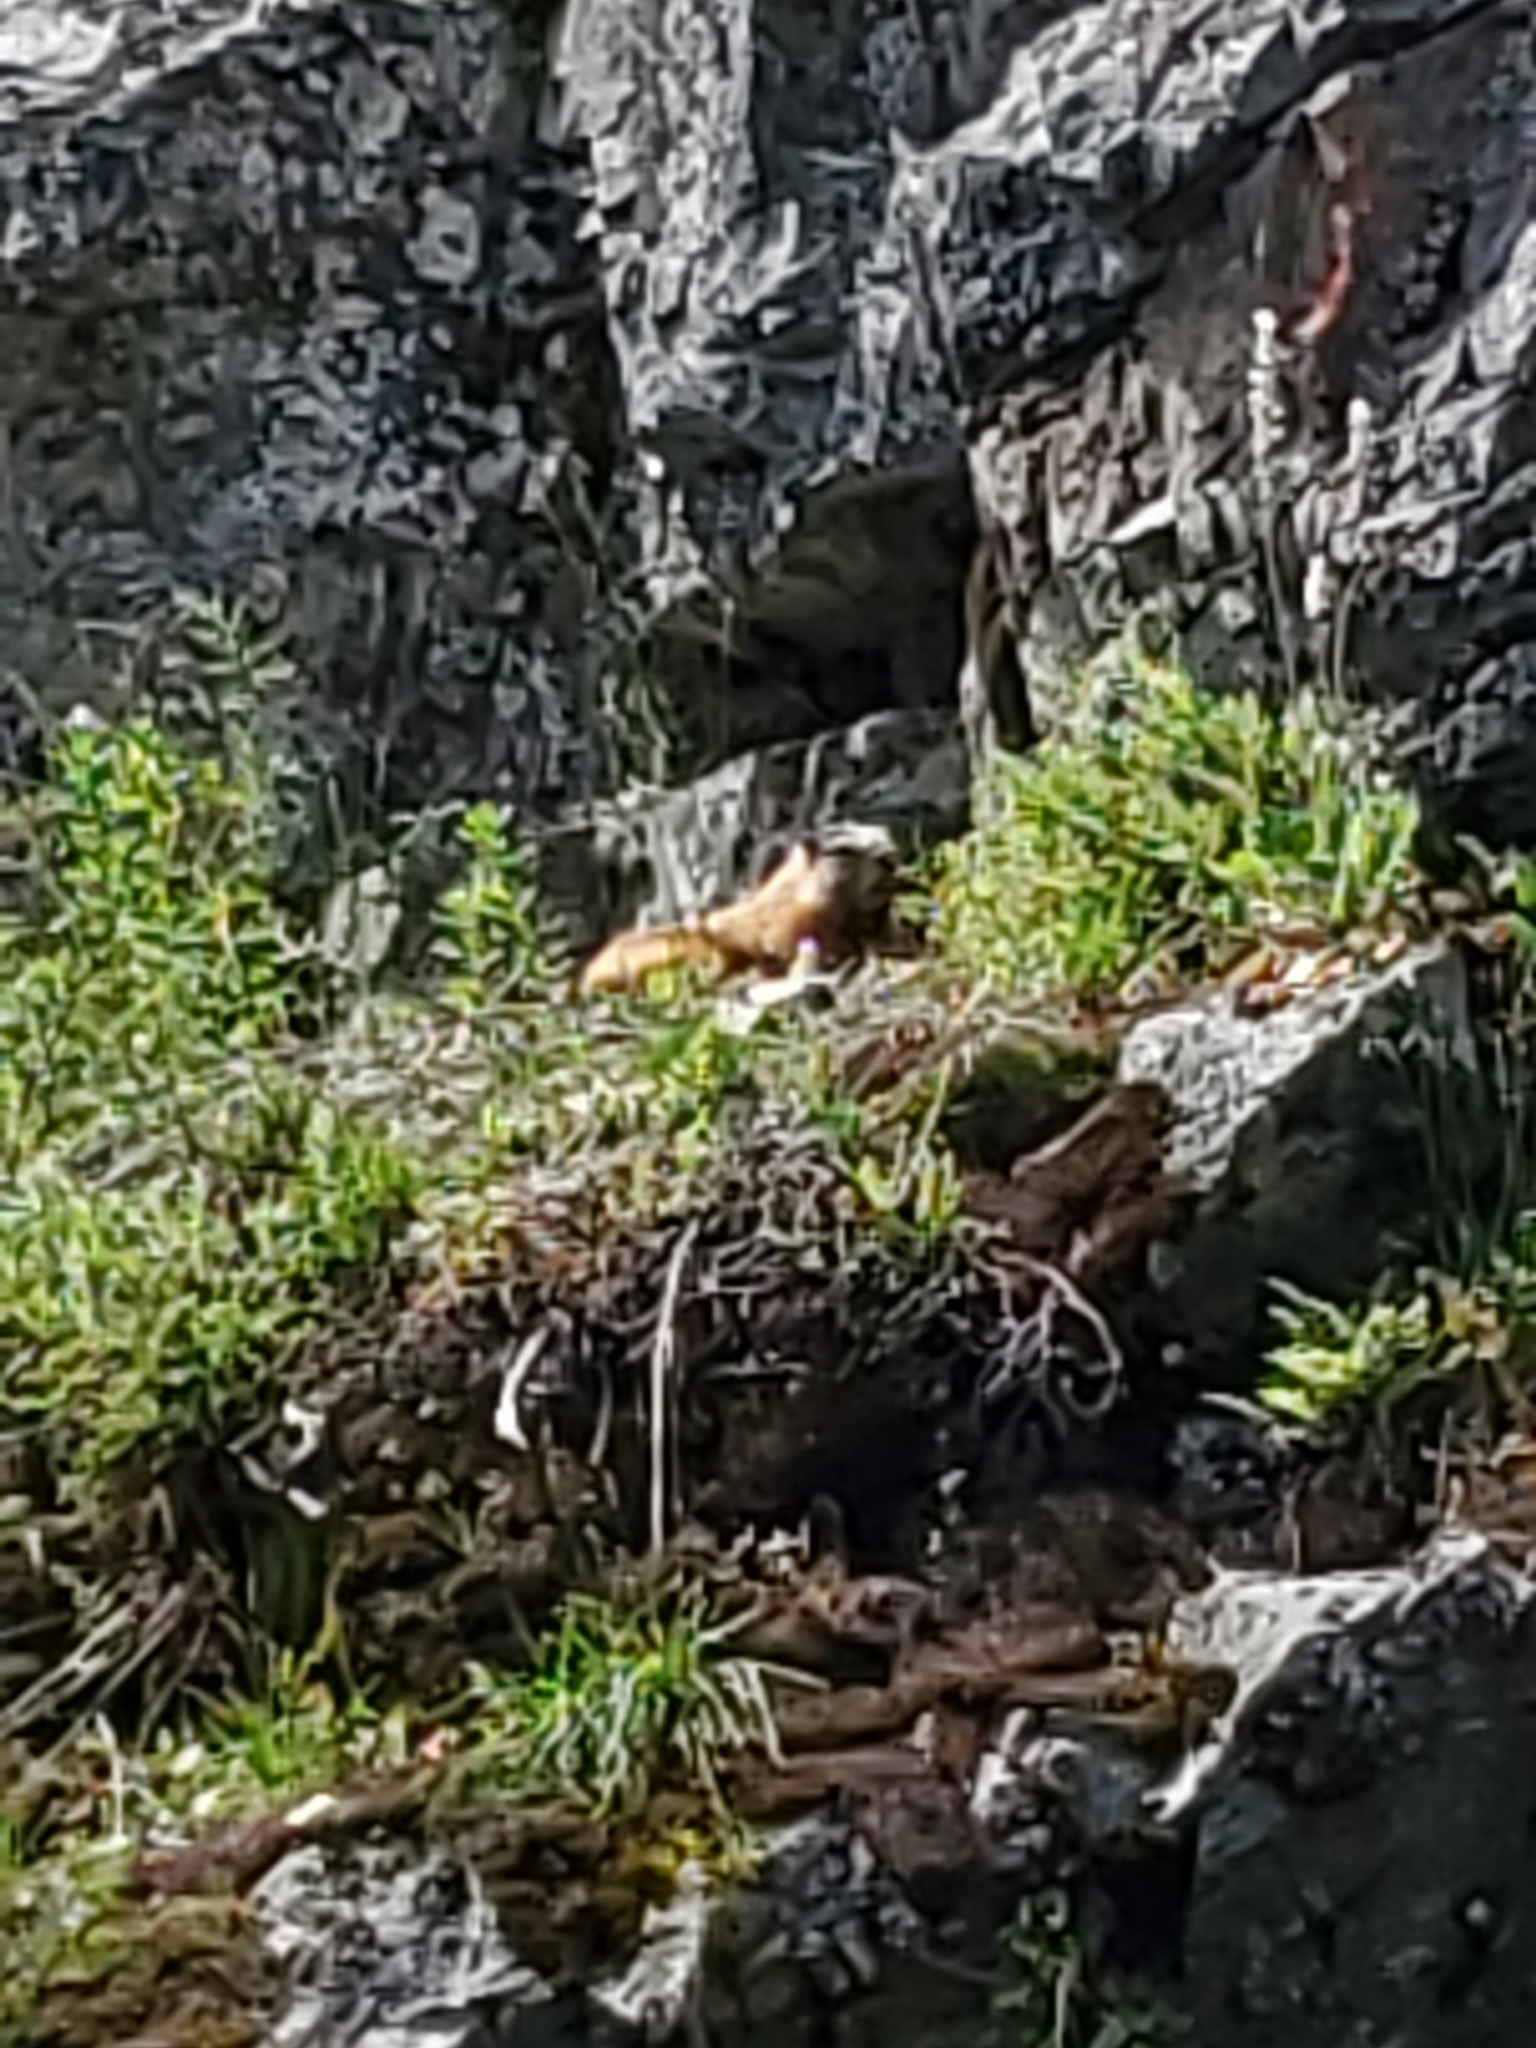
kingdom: Animalia
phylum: Chordata
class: Mammalia
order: Rodentia
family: Sciuridae
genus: Marmota
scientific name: Marmota flaviventris
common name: Yellow-bellied marmot
